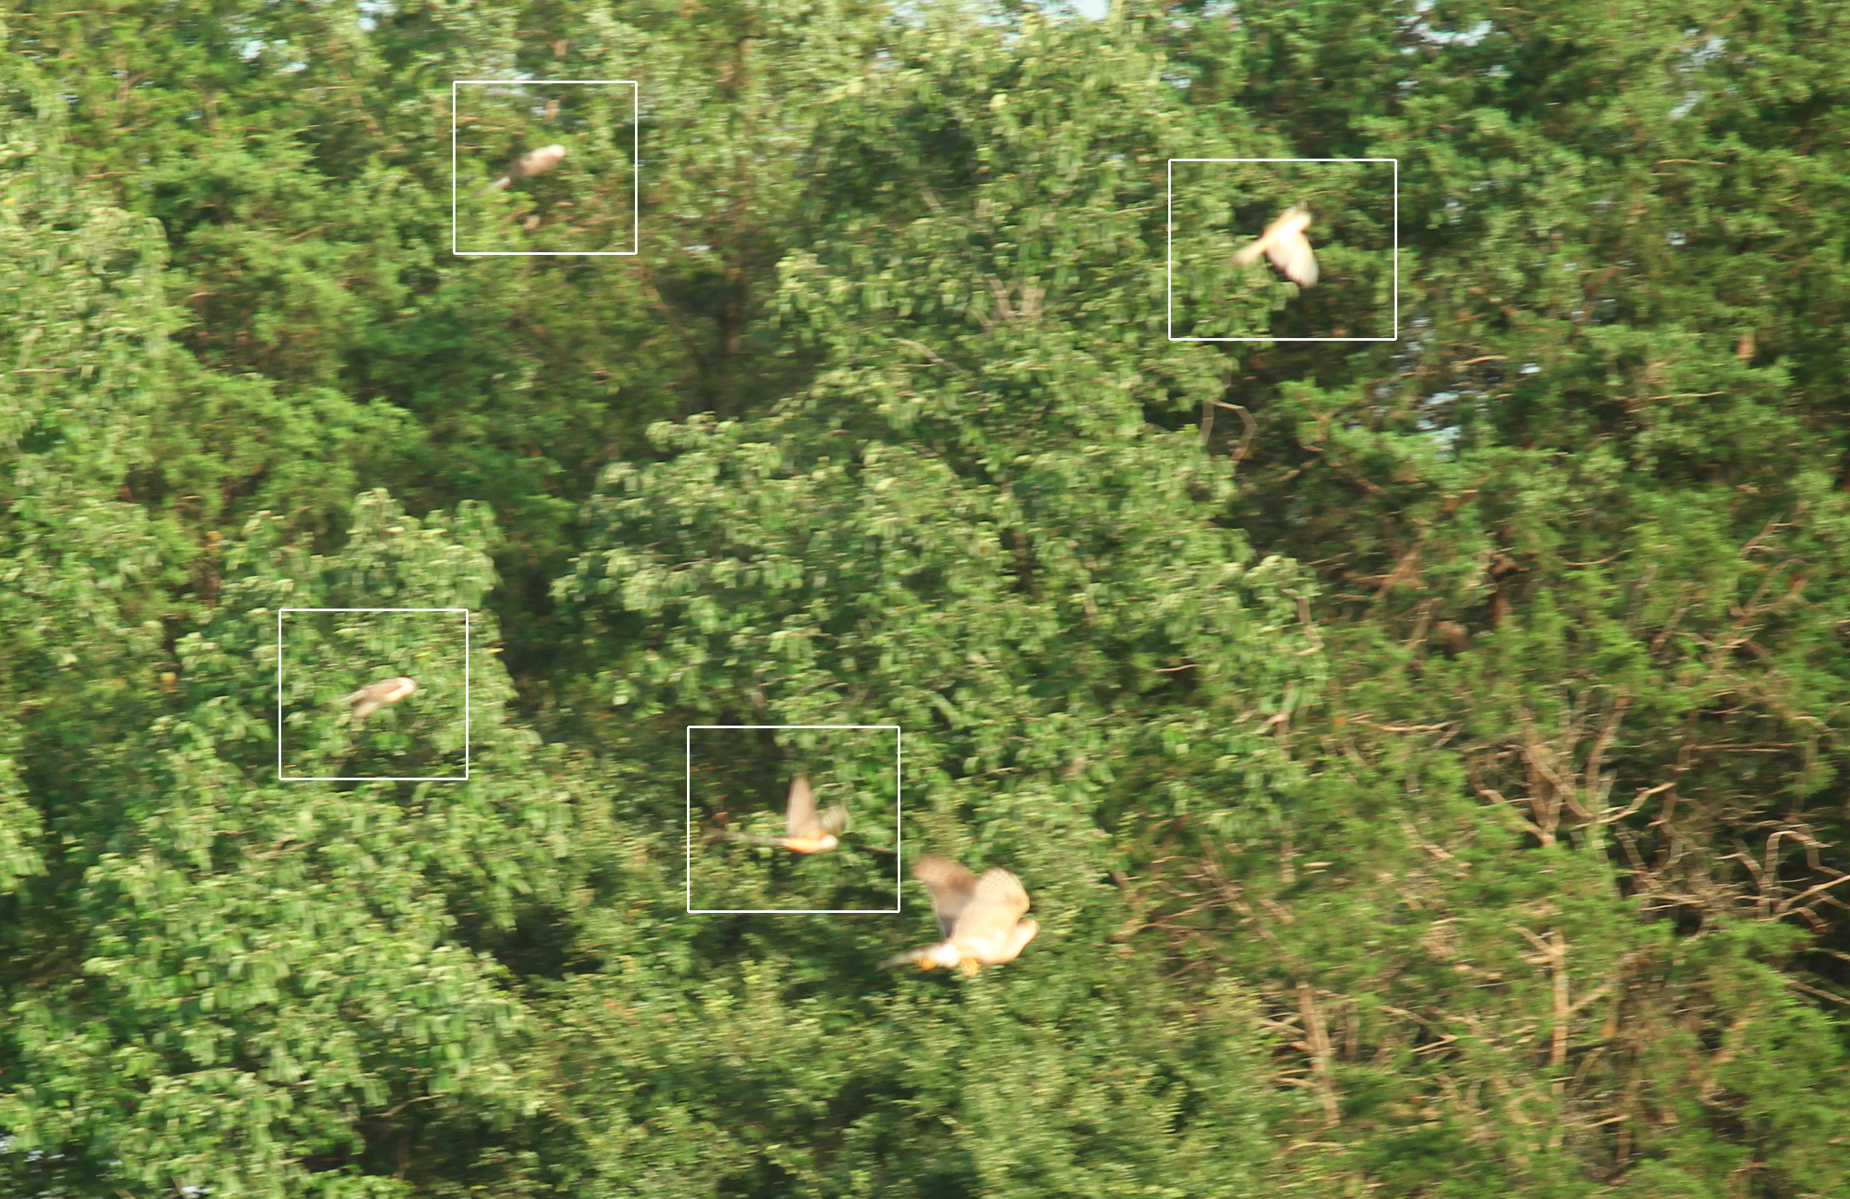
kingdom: Animalia
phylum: Chordata
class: Aves
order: Accipitriformes
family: Accipitridae
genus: Accipiter
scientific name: Accipiter
